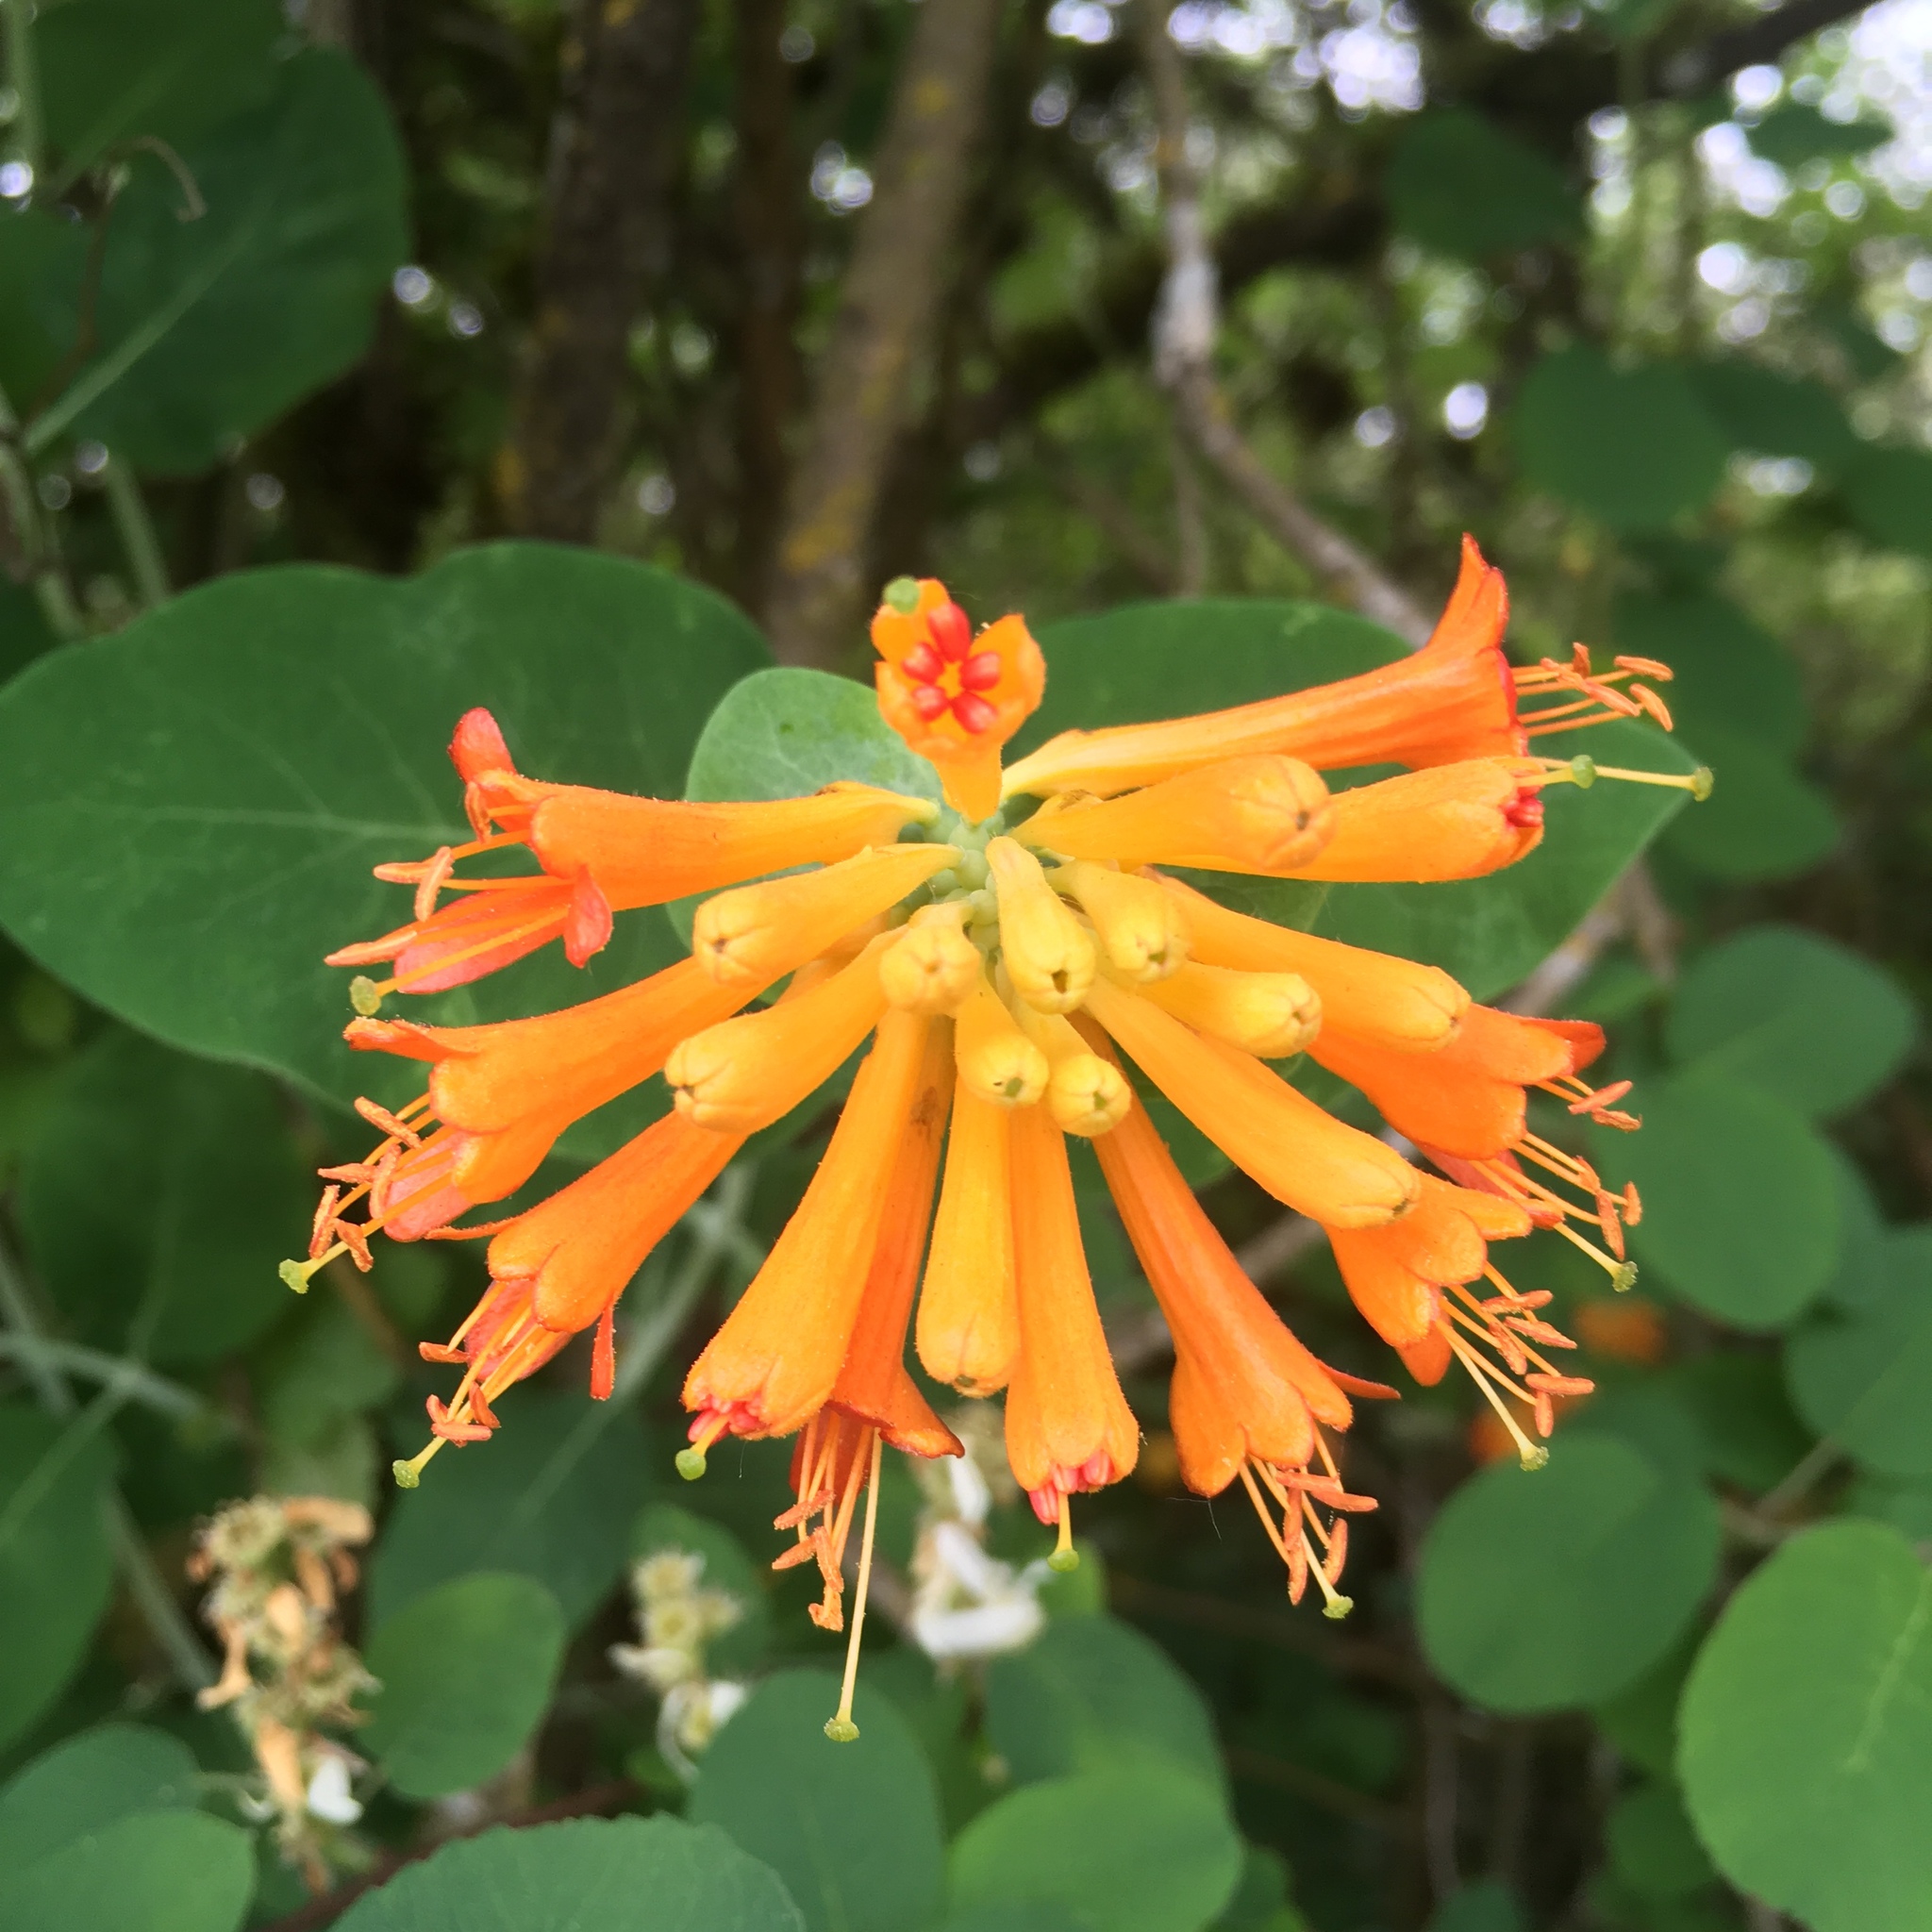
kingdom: Plantae
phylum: Tracheophyta
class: Magnoliopsida
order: Dipsacales
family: Caprifoliaceae
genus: Lonicera
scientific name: Lonicera ciliosa
